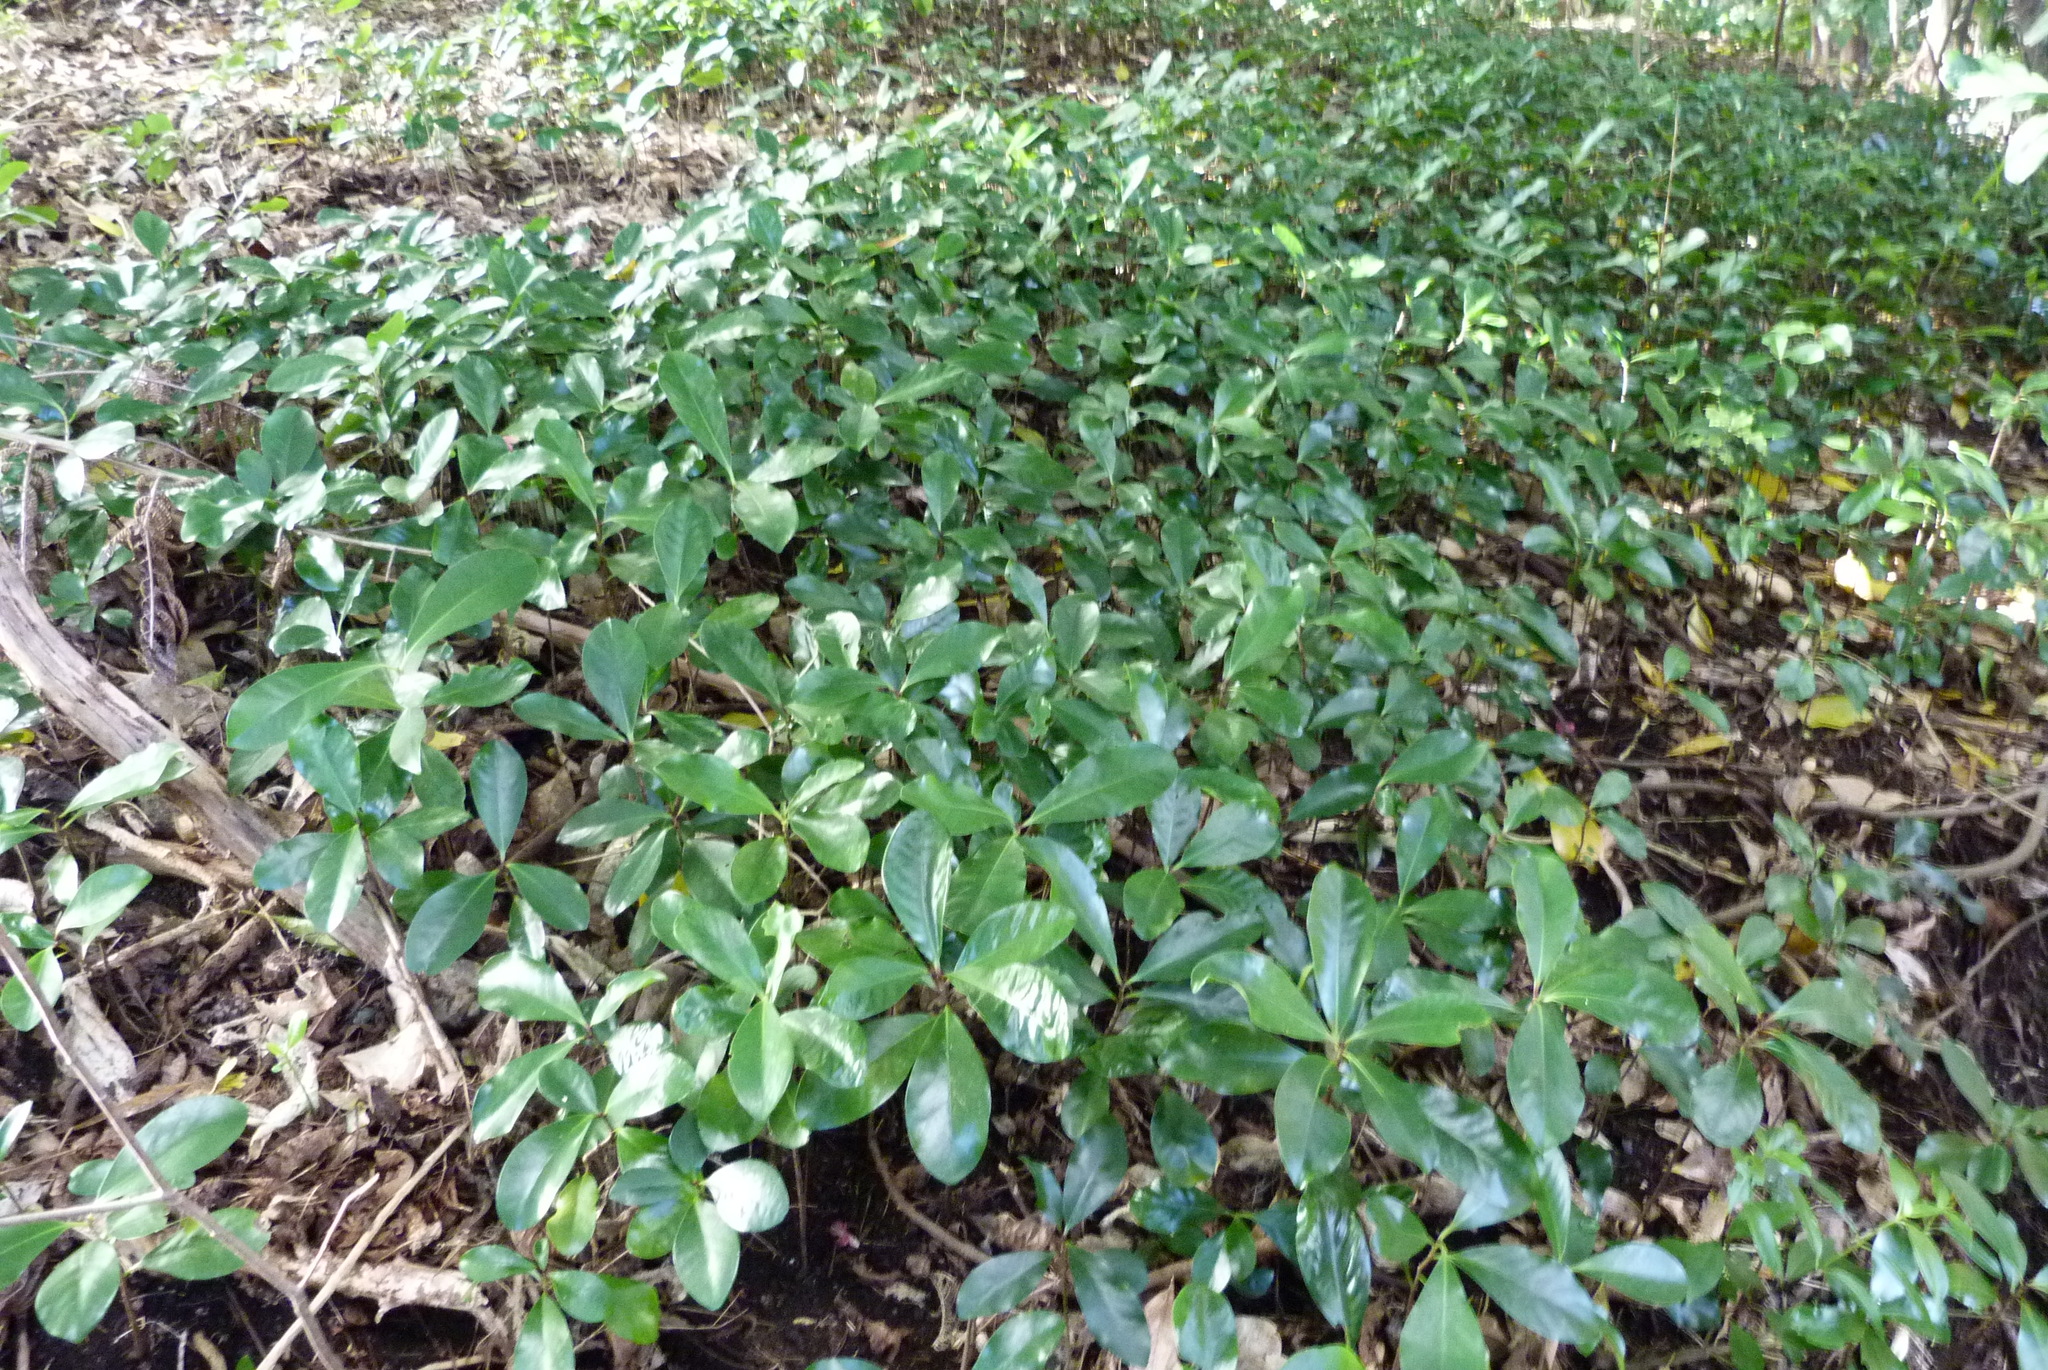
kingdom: Plantae
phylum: Tracheophyta
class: Magnoliopsida
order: Cucurbitales
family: Corynocarpaceae
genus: Corynocarpus
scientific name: Corynocarpus laevigatus
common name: New zealand laurel
